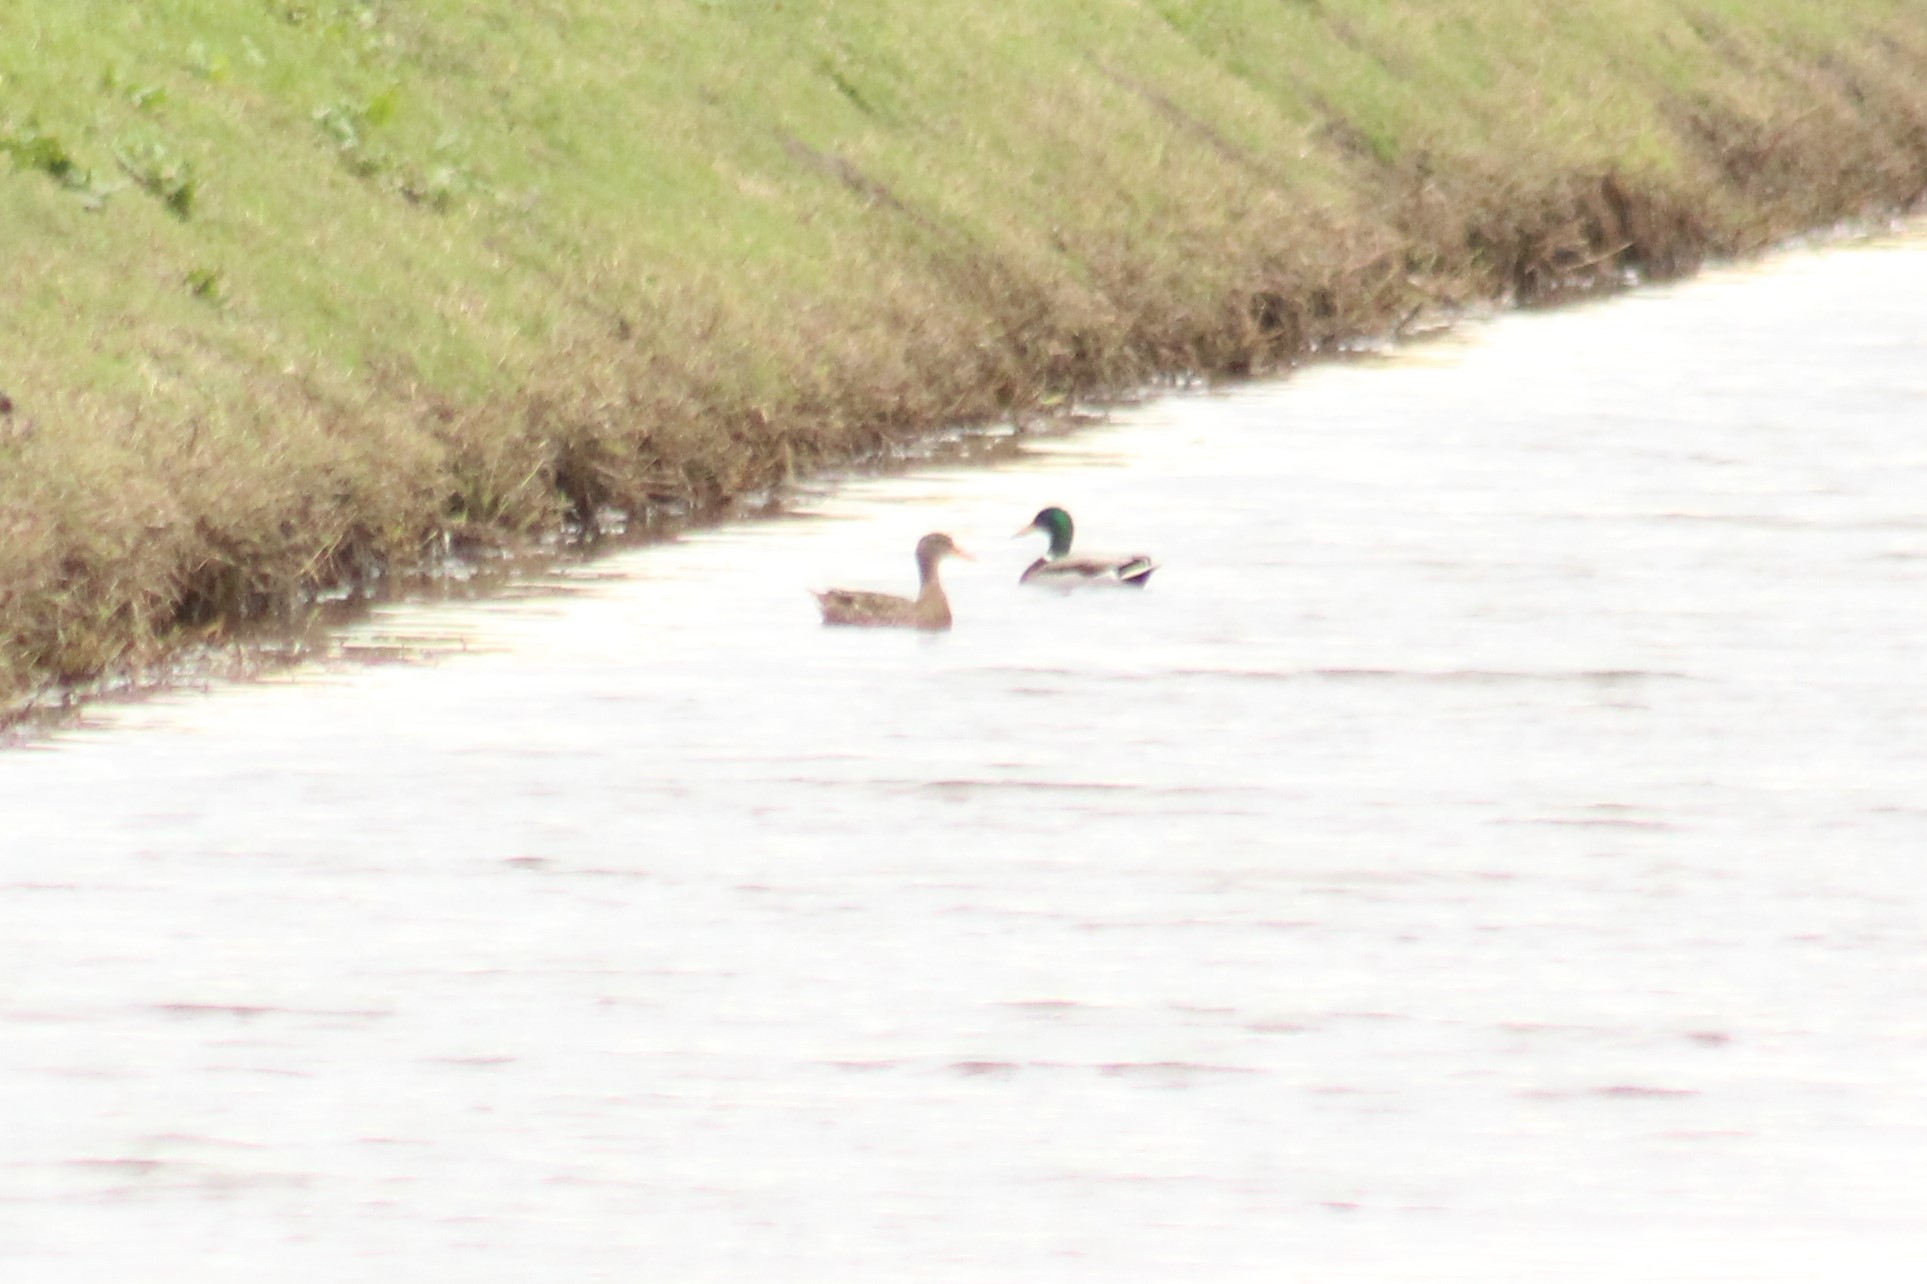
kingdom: Animalia
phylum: Chordata
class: Aves
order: Anseriformes
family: Anatidae
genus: Anas
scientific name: Anas platyrhynchos
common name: Mallard
